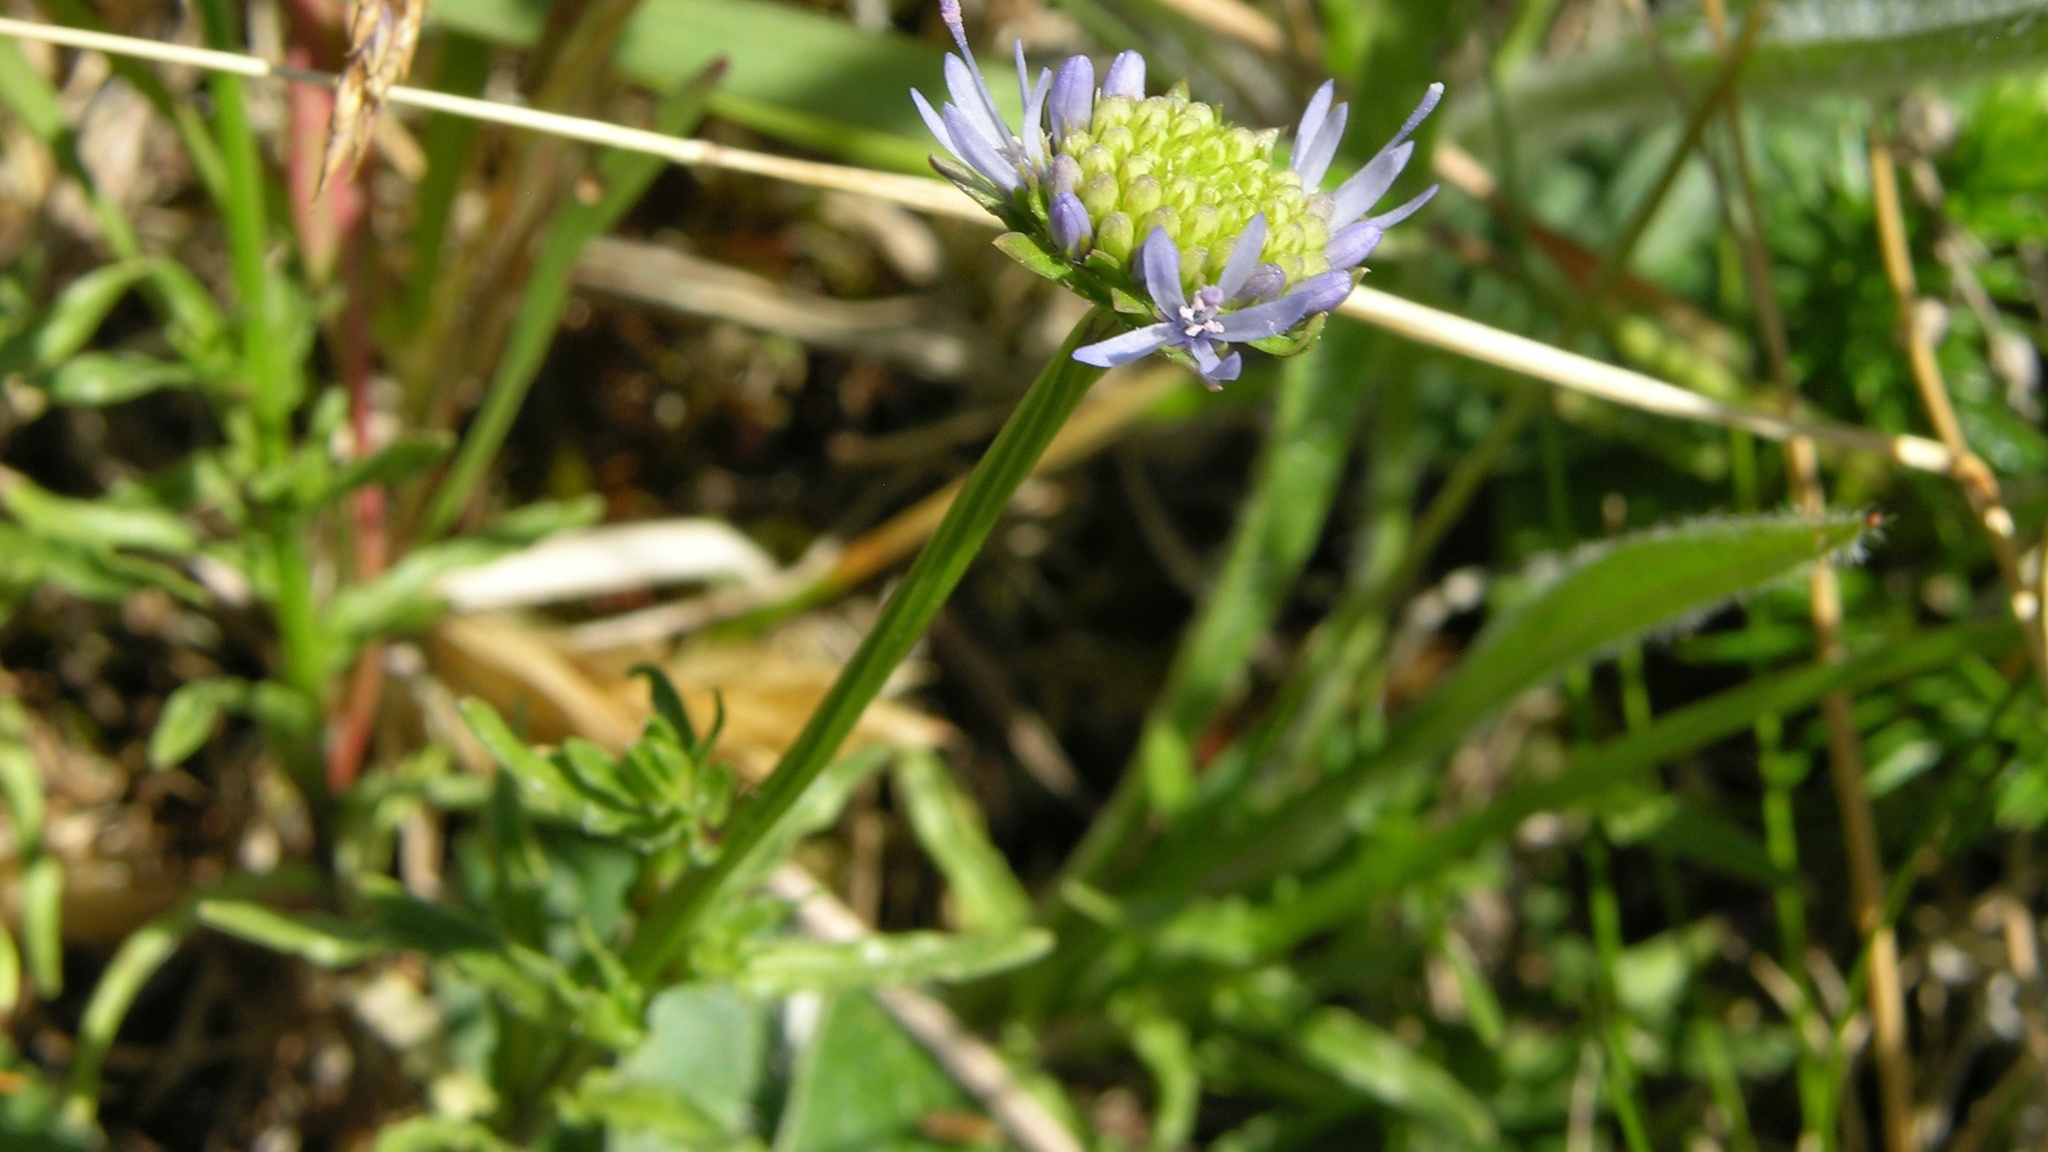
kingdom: Plantae
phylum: Tracheophyta
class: Magnoliopsida
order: Asterales
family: Campanulaceae
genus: Jasione
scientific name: Jasione montana
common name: Sheep's-bit
